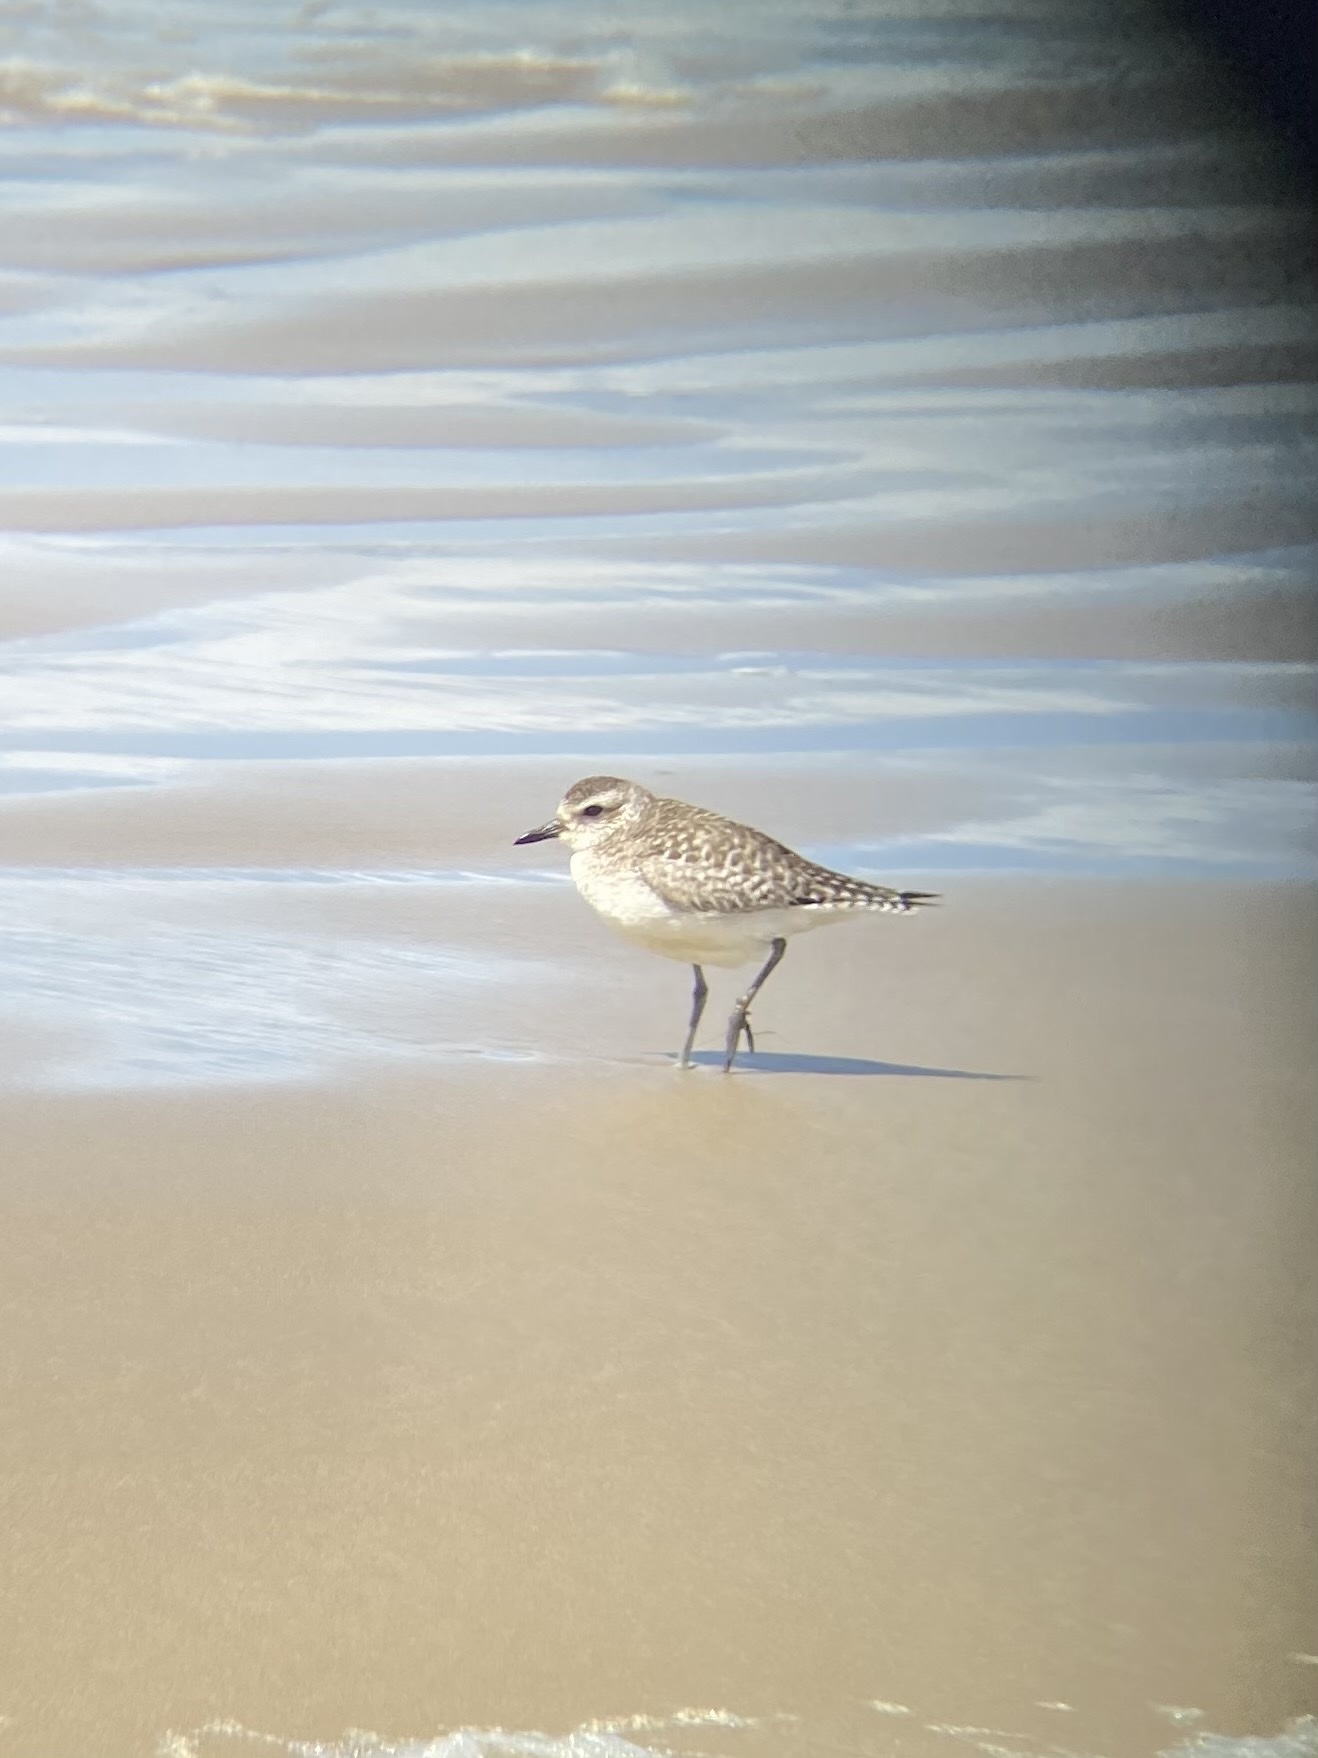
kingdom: Animalia
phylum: Chordata
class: Aves
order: Charadriiformes
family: Charadriidae
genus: Pluvialis
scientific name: Pluvialis squatarola
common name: Grey plover
